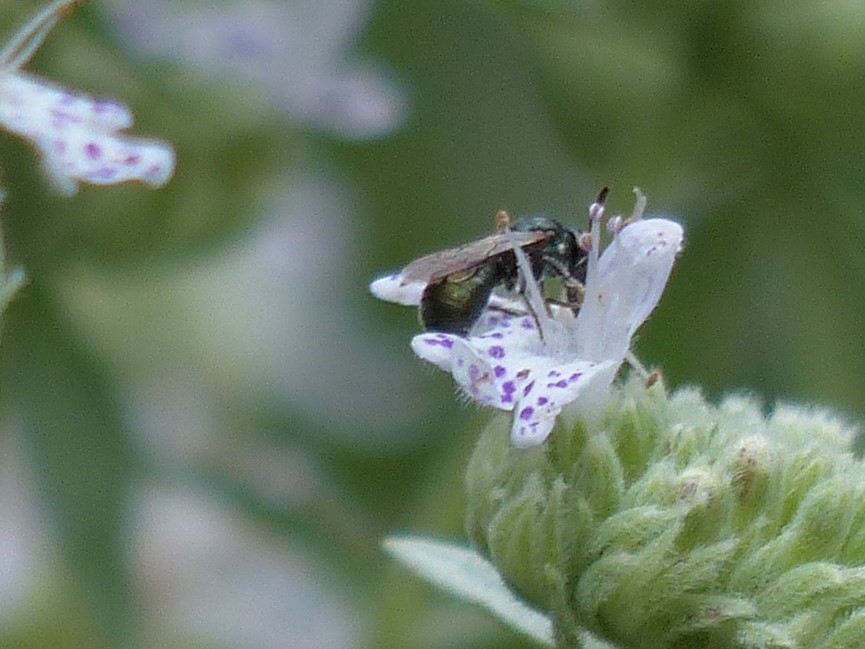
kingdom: Animalia
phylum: Arthropoda
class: Insecta
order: Hymenoptera
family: Apidae
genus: Zadontomerus
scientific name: Zadontomerus
